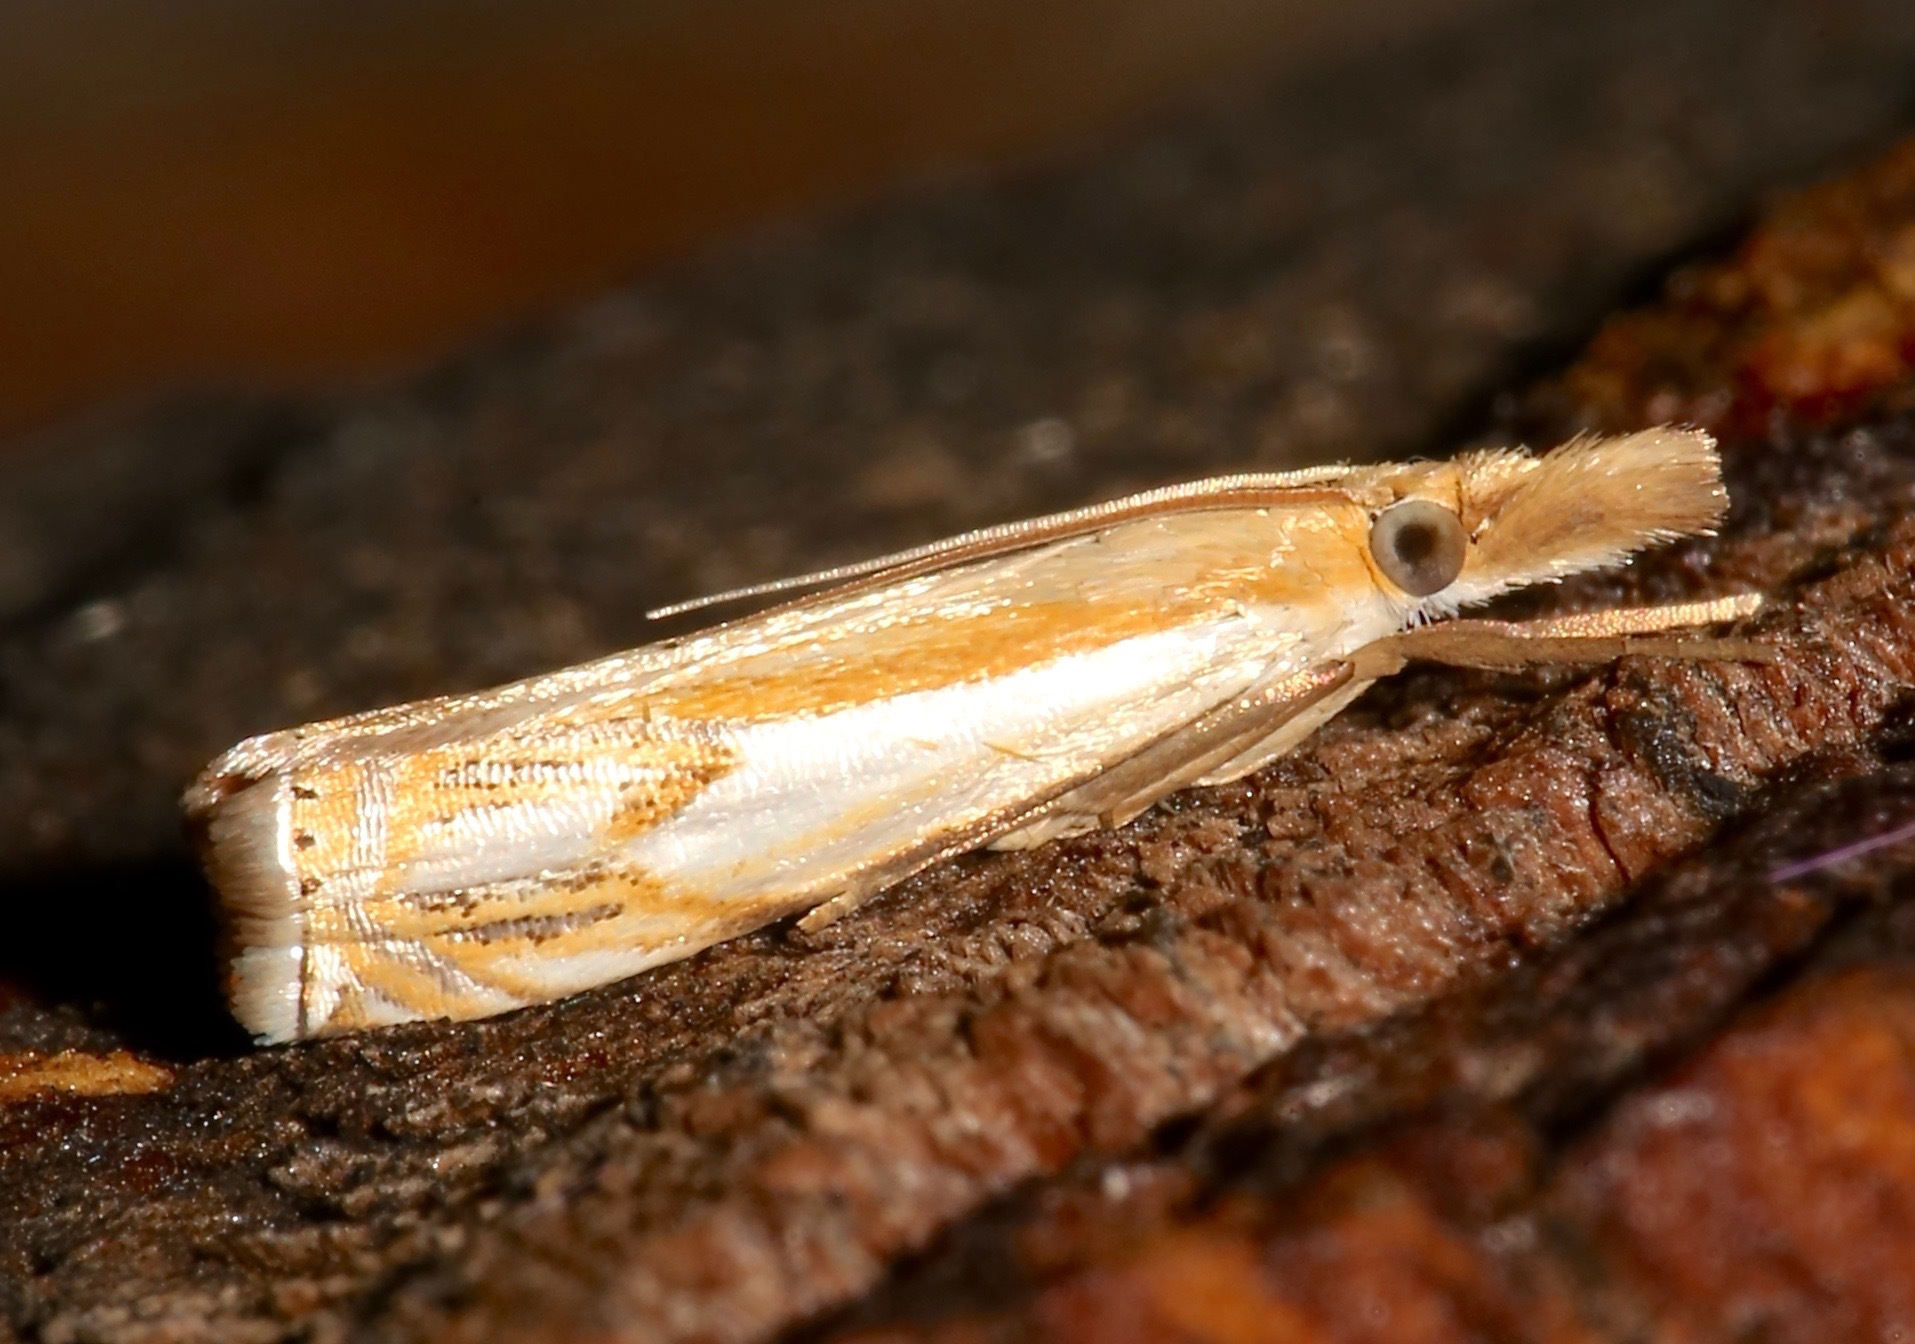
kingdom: Animalia
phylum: Arthropoda
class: Insecta
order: Lepidoptera
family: Crambidae
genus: Crambus
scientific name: Crambus agitatellus
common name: Double-banded grass-veneer
